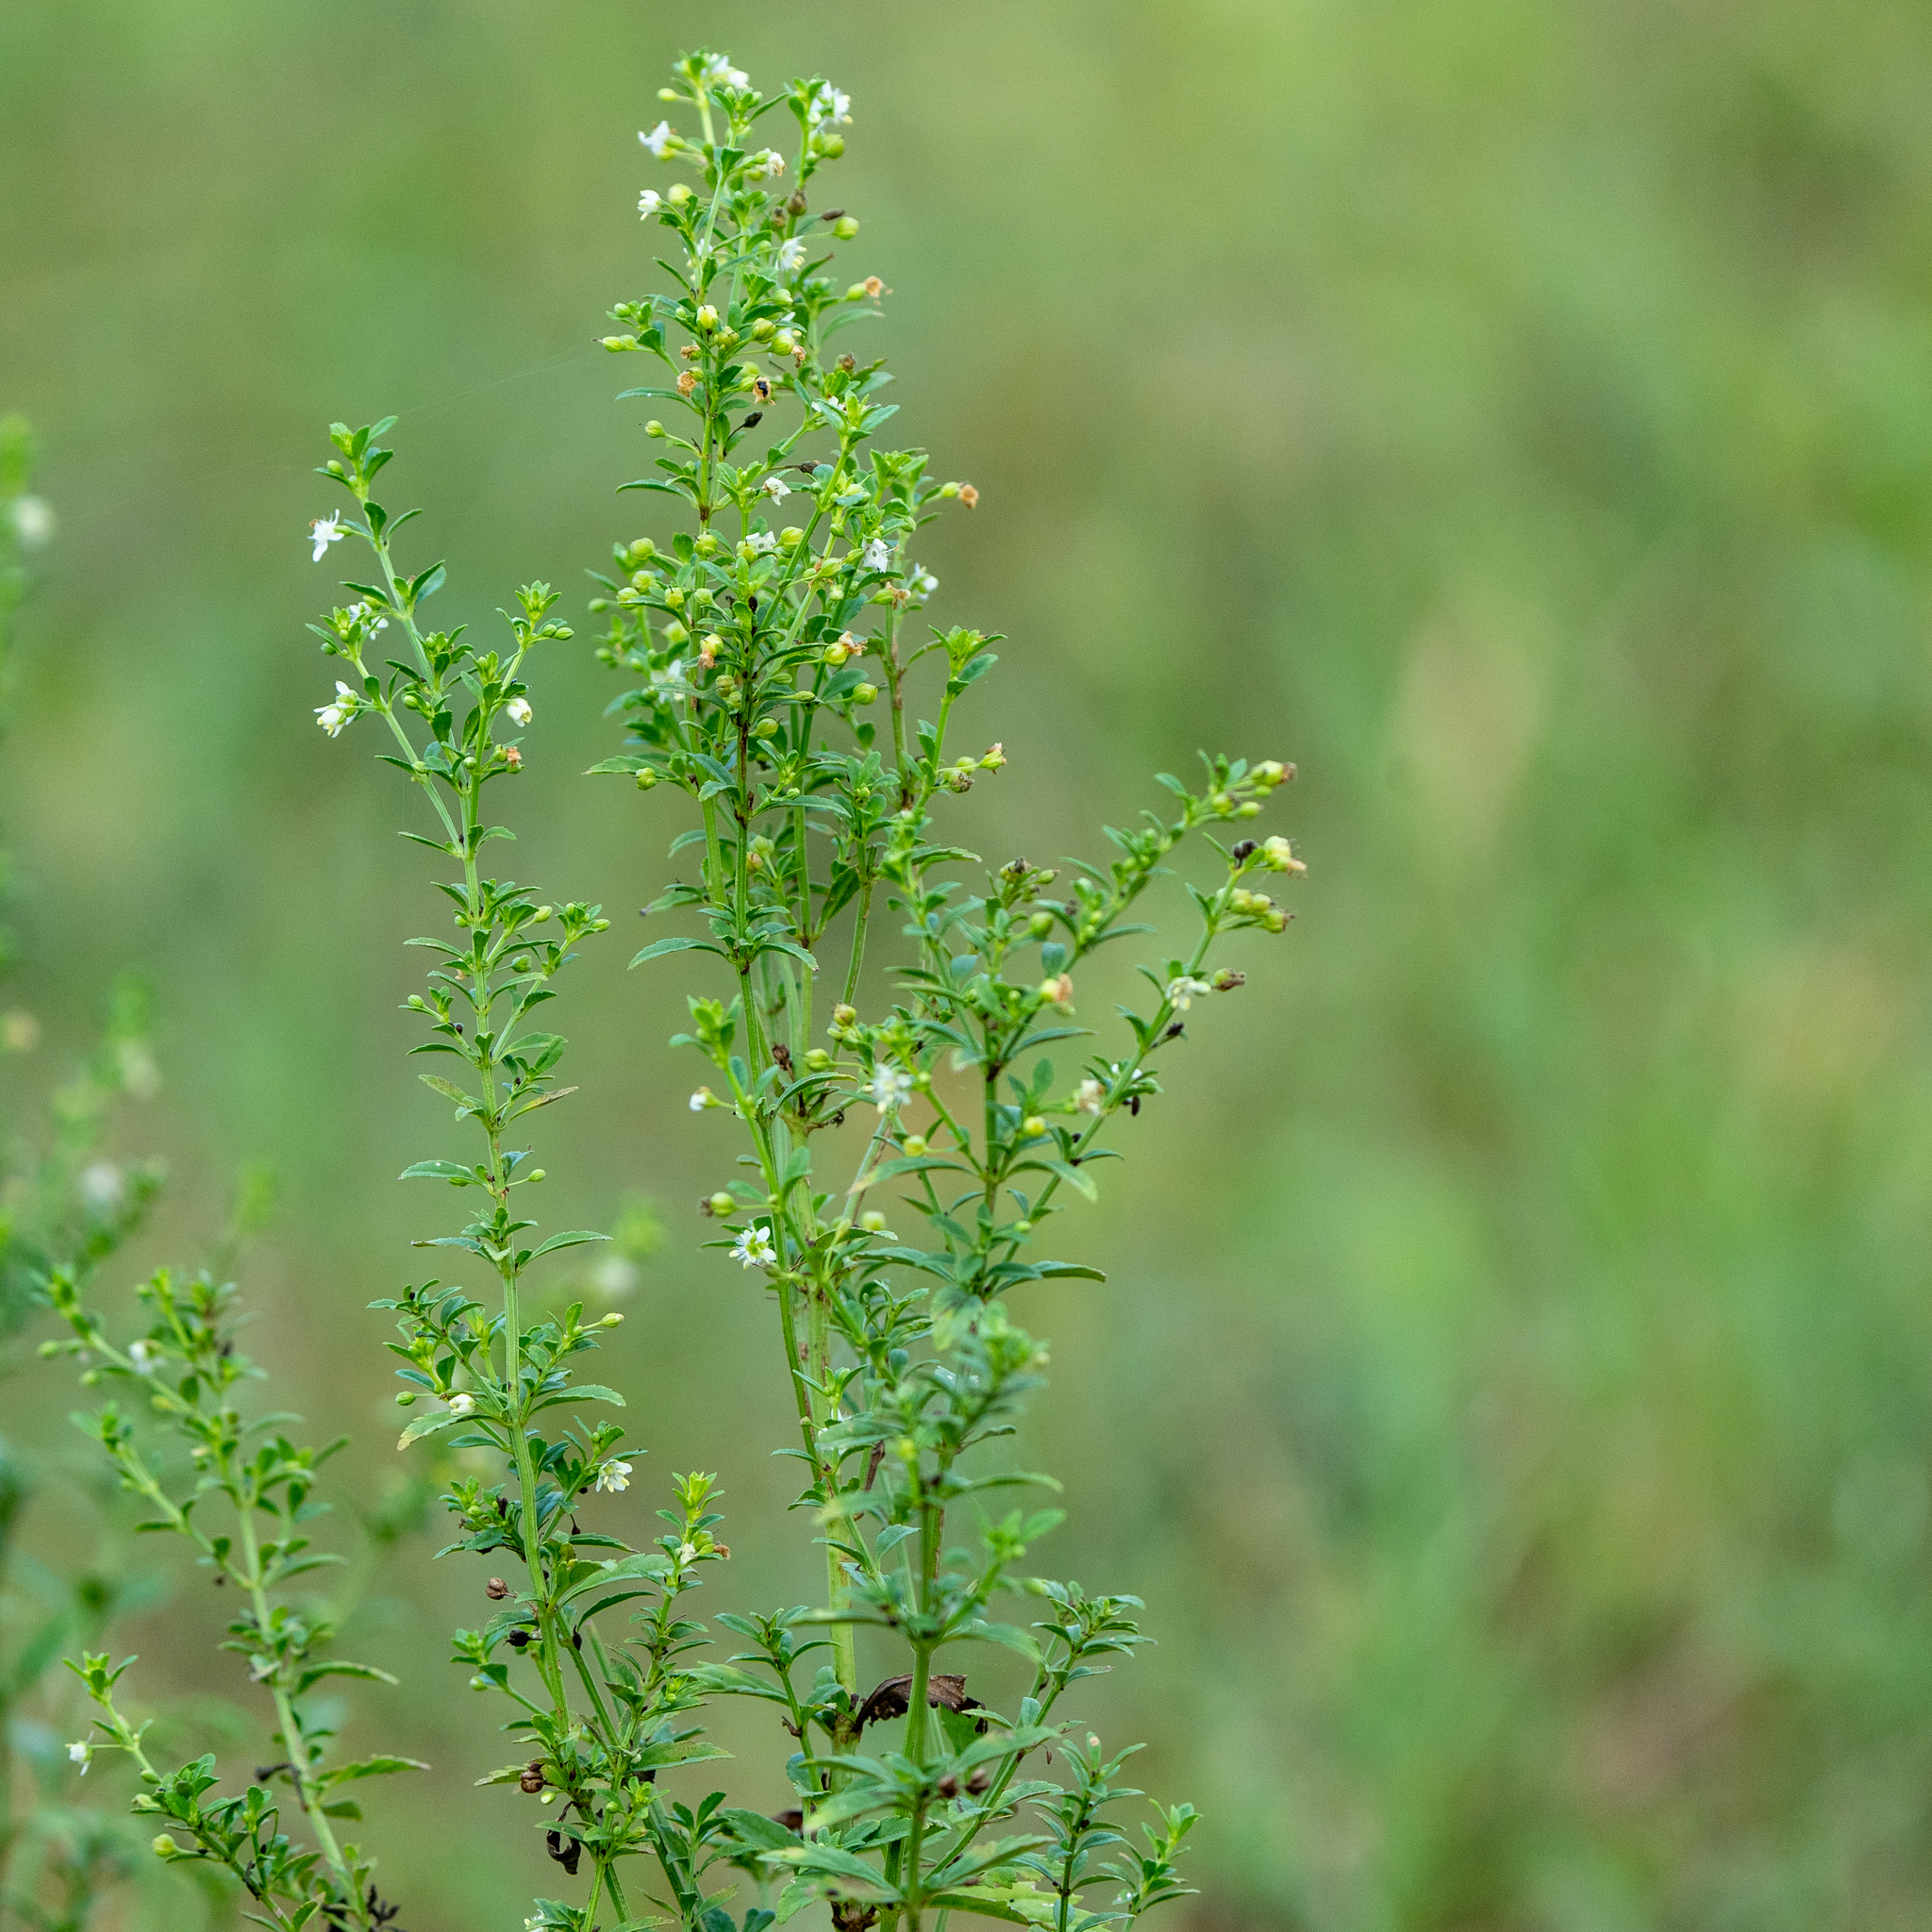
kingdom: Plantae
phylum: Tracheophyta
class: Magnoliopsida
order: Lamiales
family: Plantaginaceae
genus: Scoparia
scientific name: Scoparia dulcis
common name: Scoparia-weed
